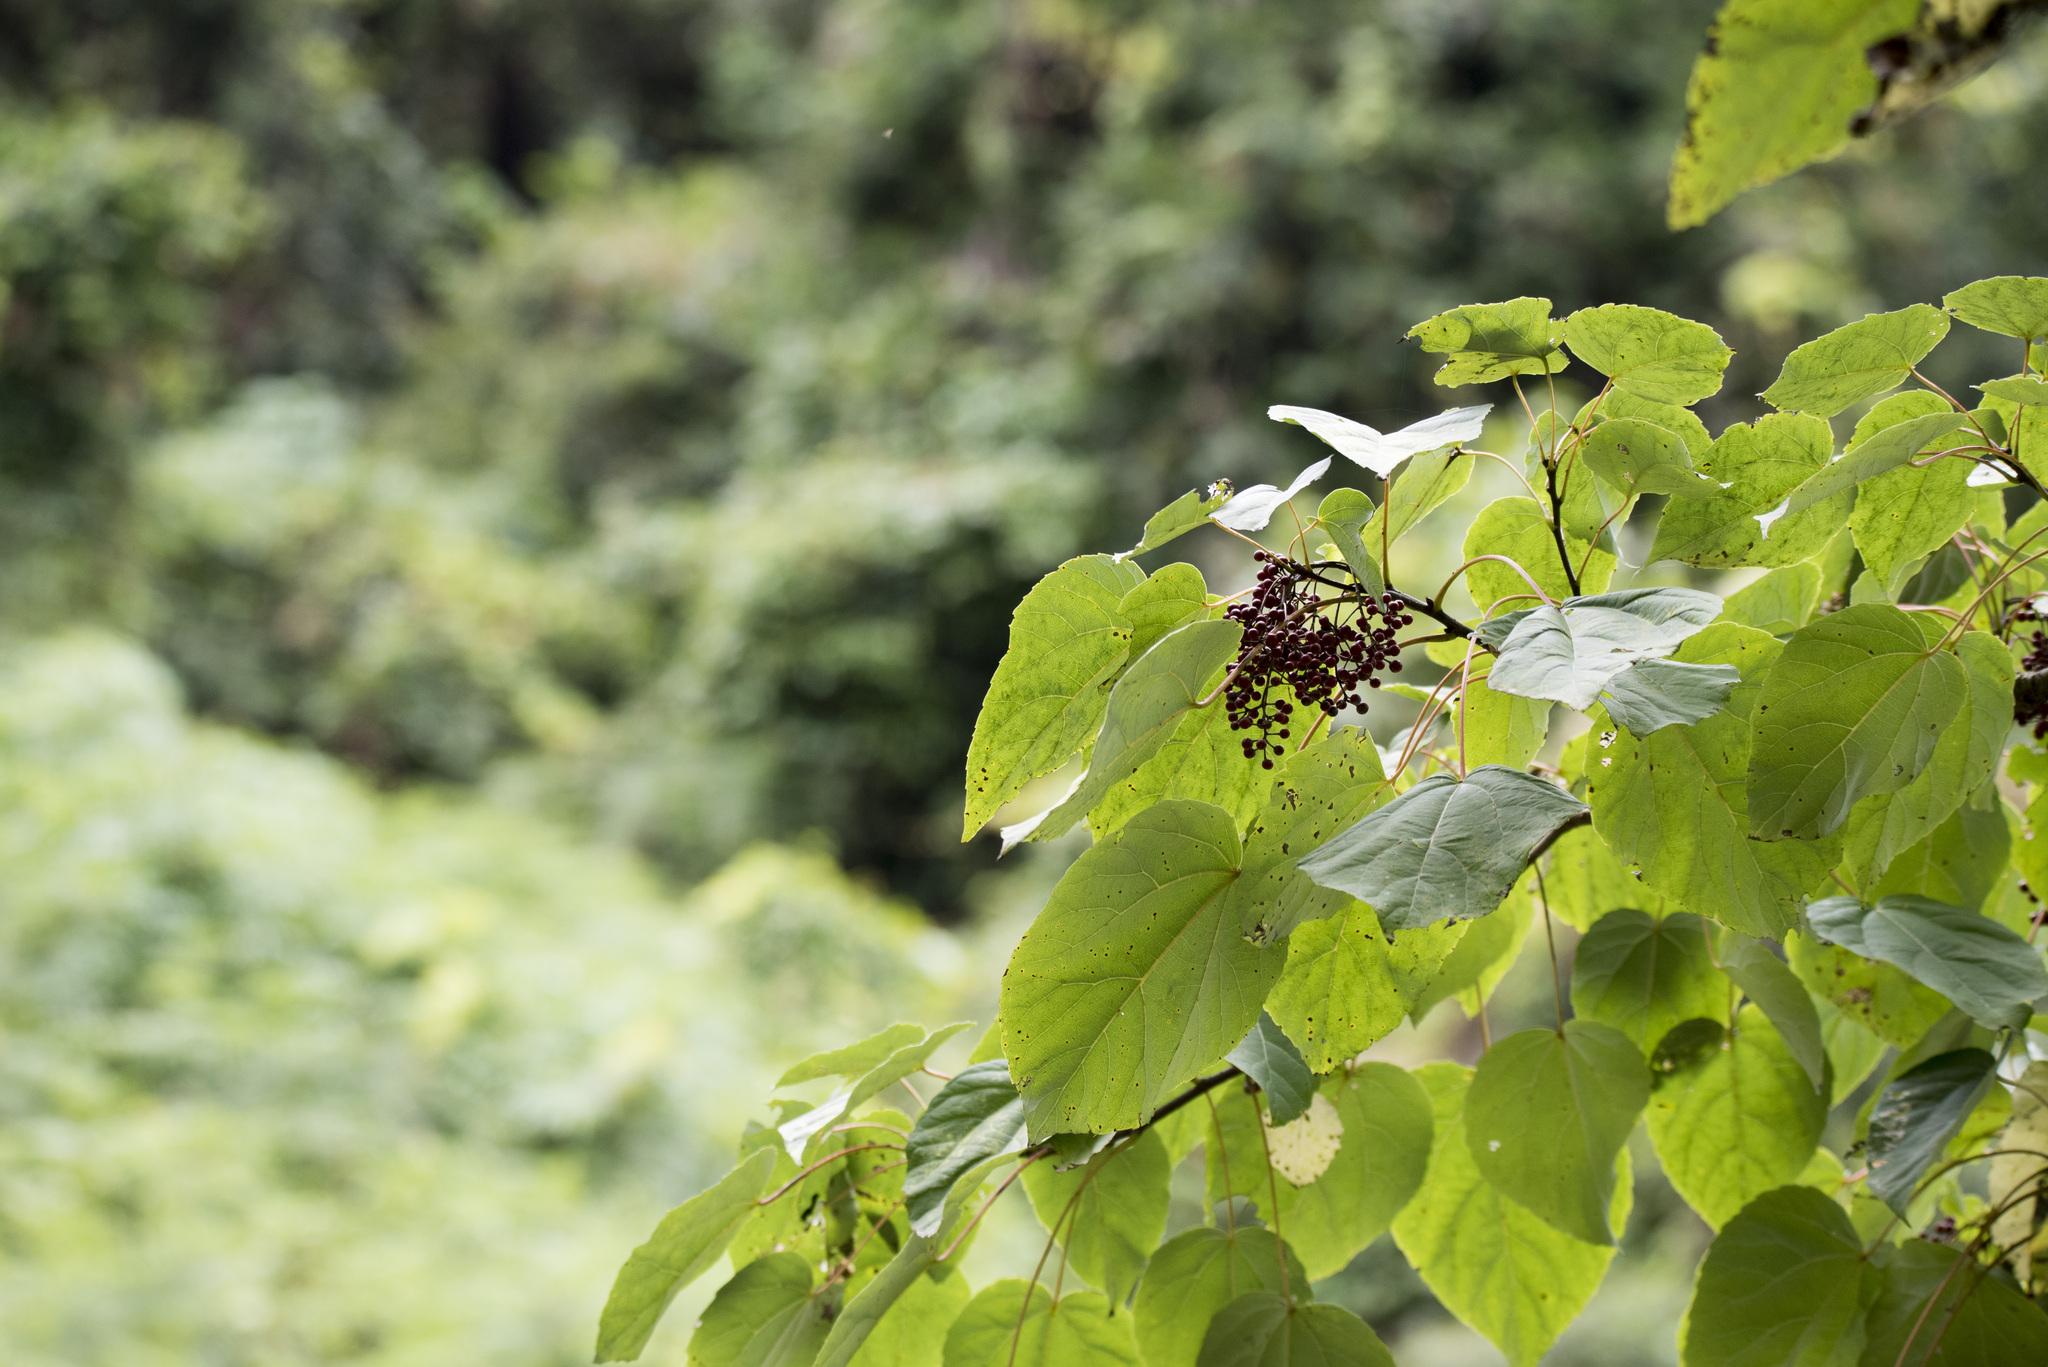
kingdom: Plantae
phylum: Tracheophyta
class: Magnoliopsida
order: Malpighiales
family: Salicaceae
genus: Idesia
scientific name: Idesia polycarpa
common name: Idesia tree
